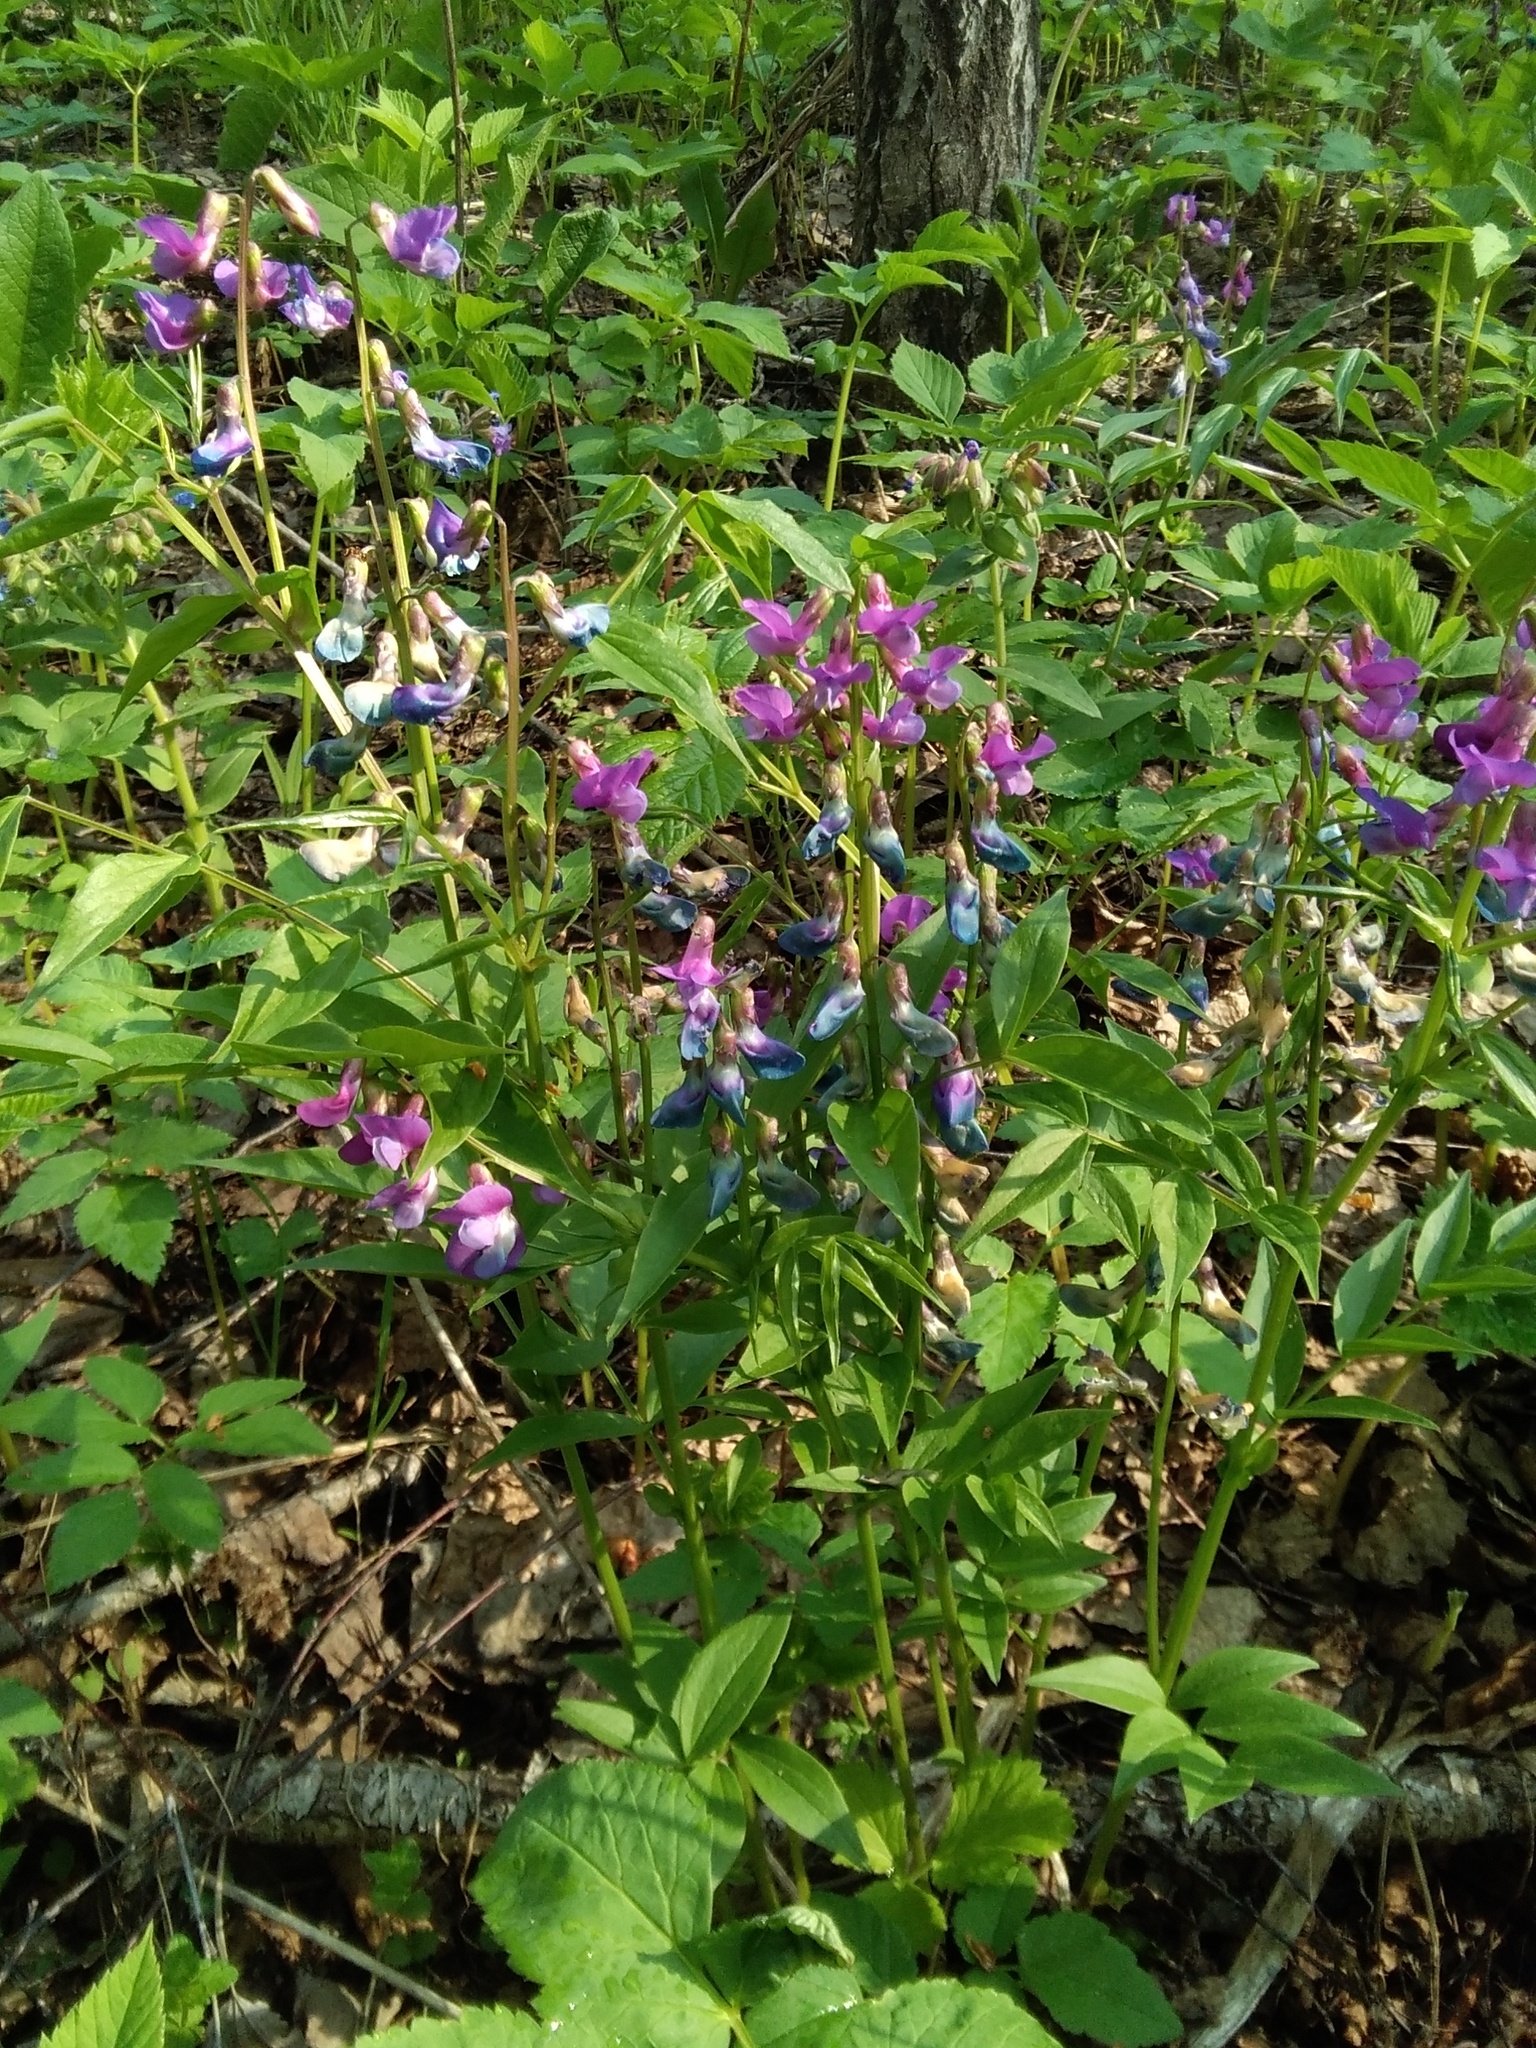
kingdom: Plantae
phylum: Tracheophyta
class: Magnoliopsida
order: Fabales
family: Fabaceae
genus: Lathyrus
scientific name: Lathyrus vernus
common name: Spring pea
